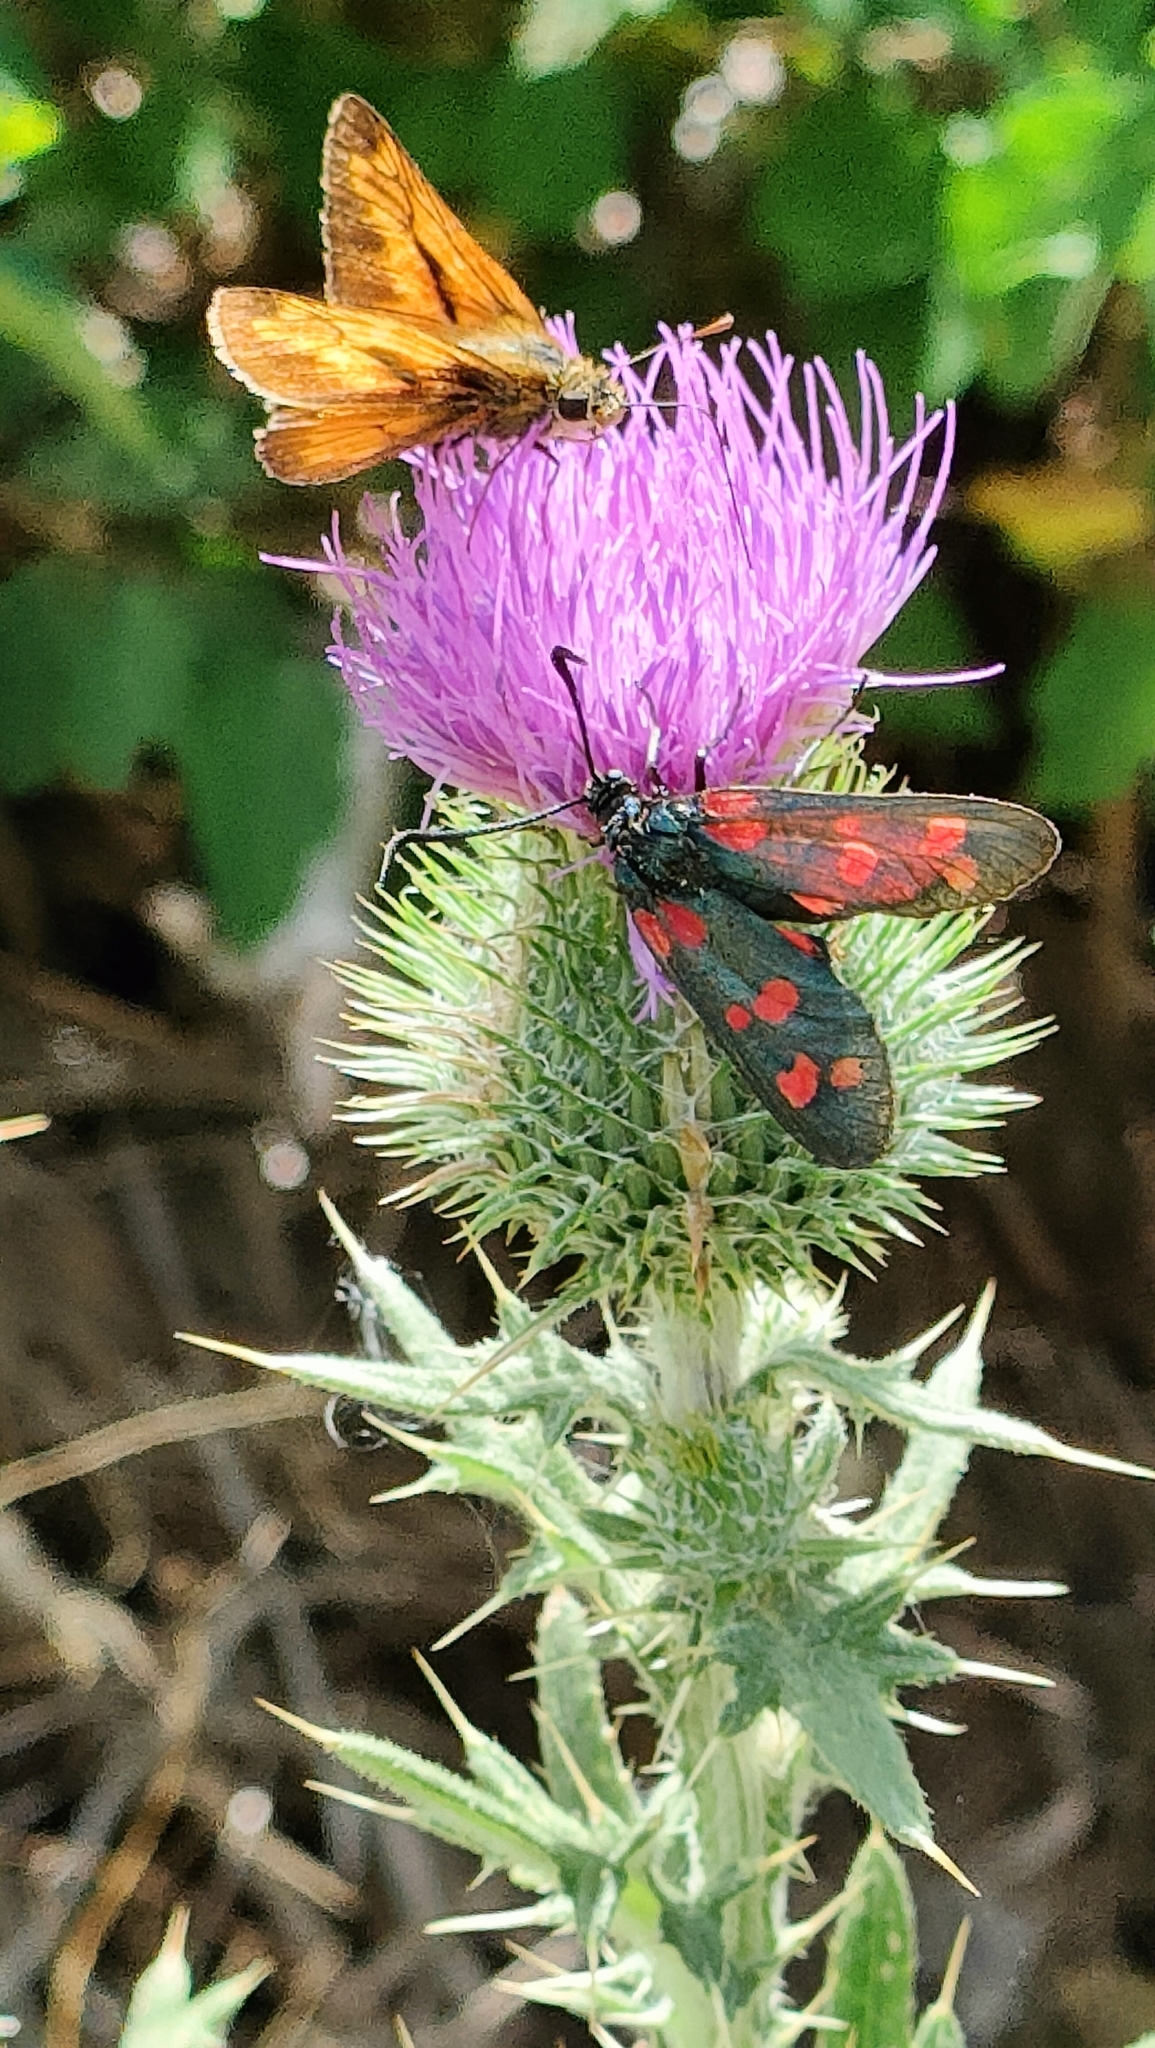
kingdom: Animalia
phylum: Arthropoda
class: Insecta
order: Lepidoptera
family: Zygaenidae
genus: Zygaena
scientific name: Zygaena filipendulae
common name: Six-spot burnet
